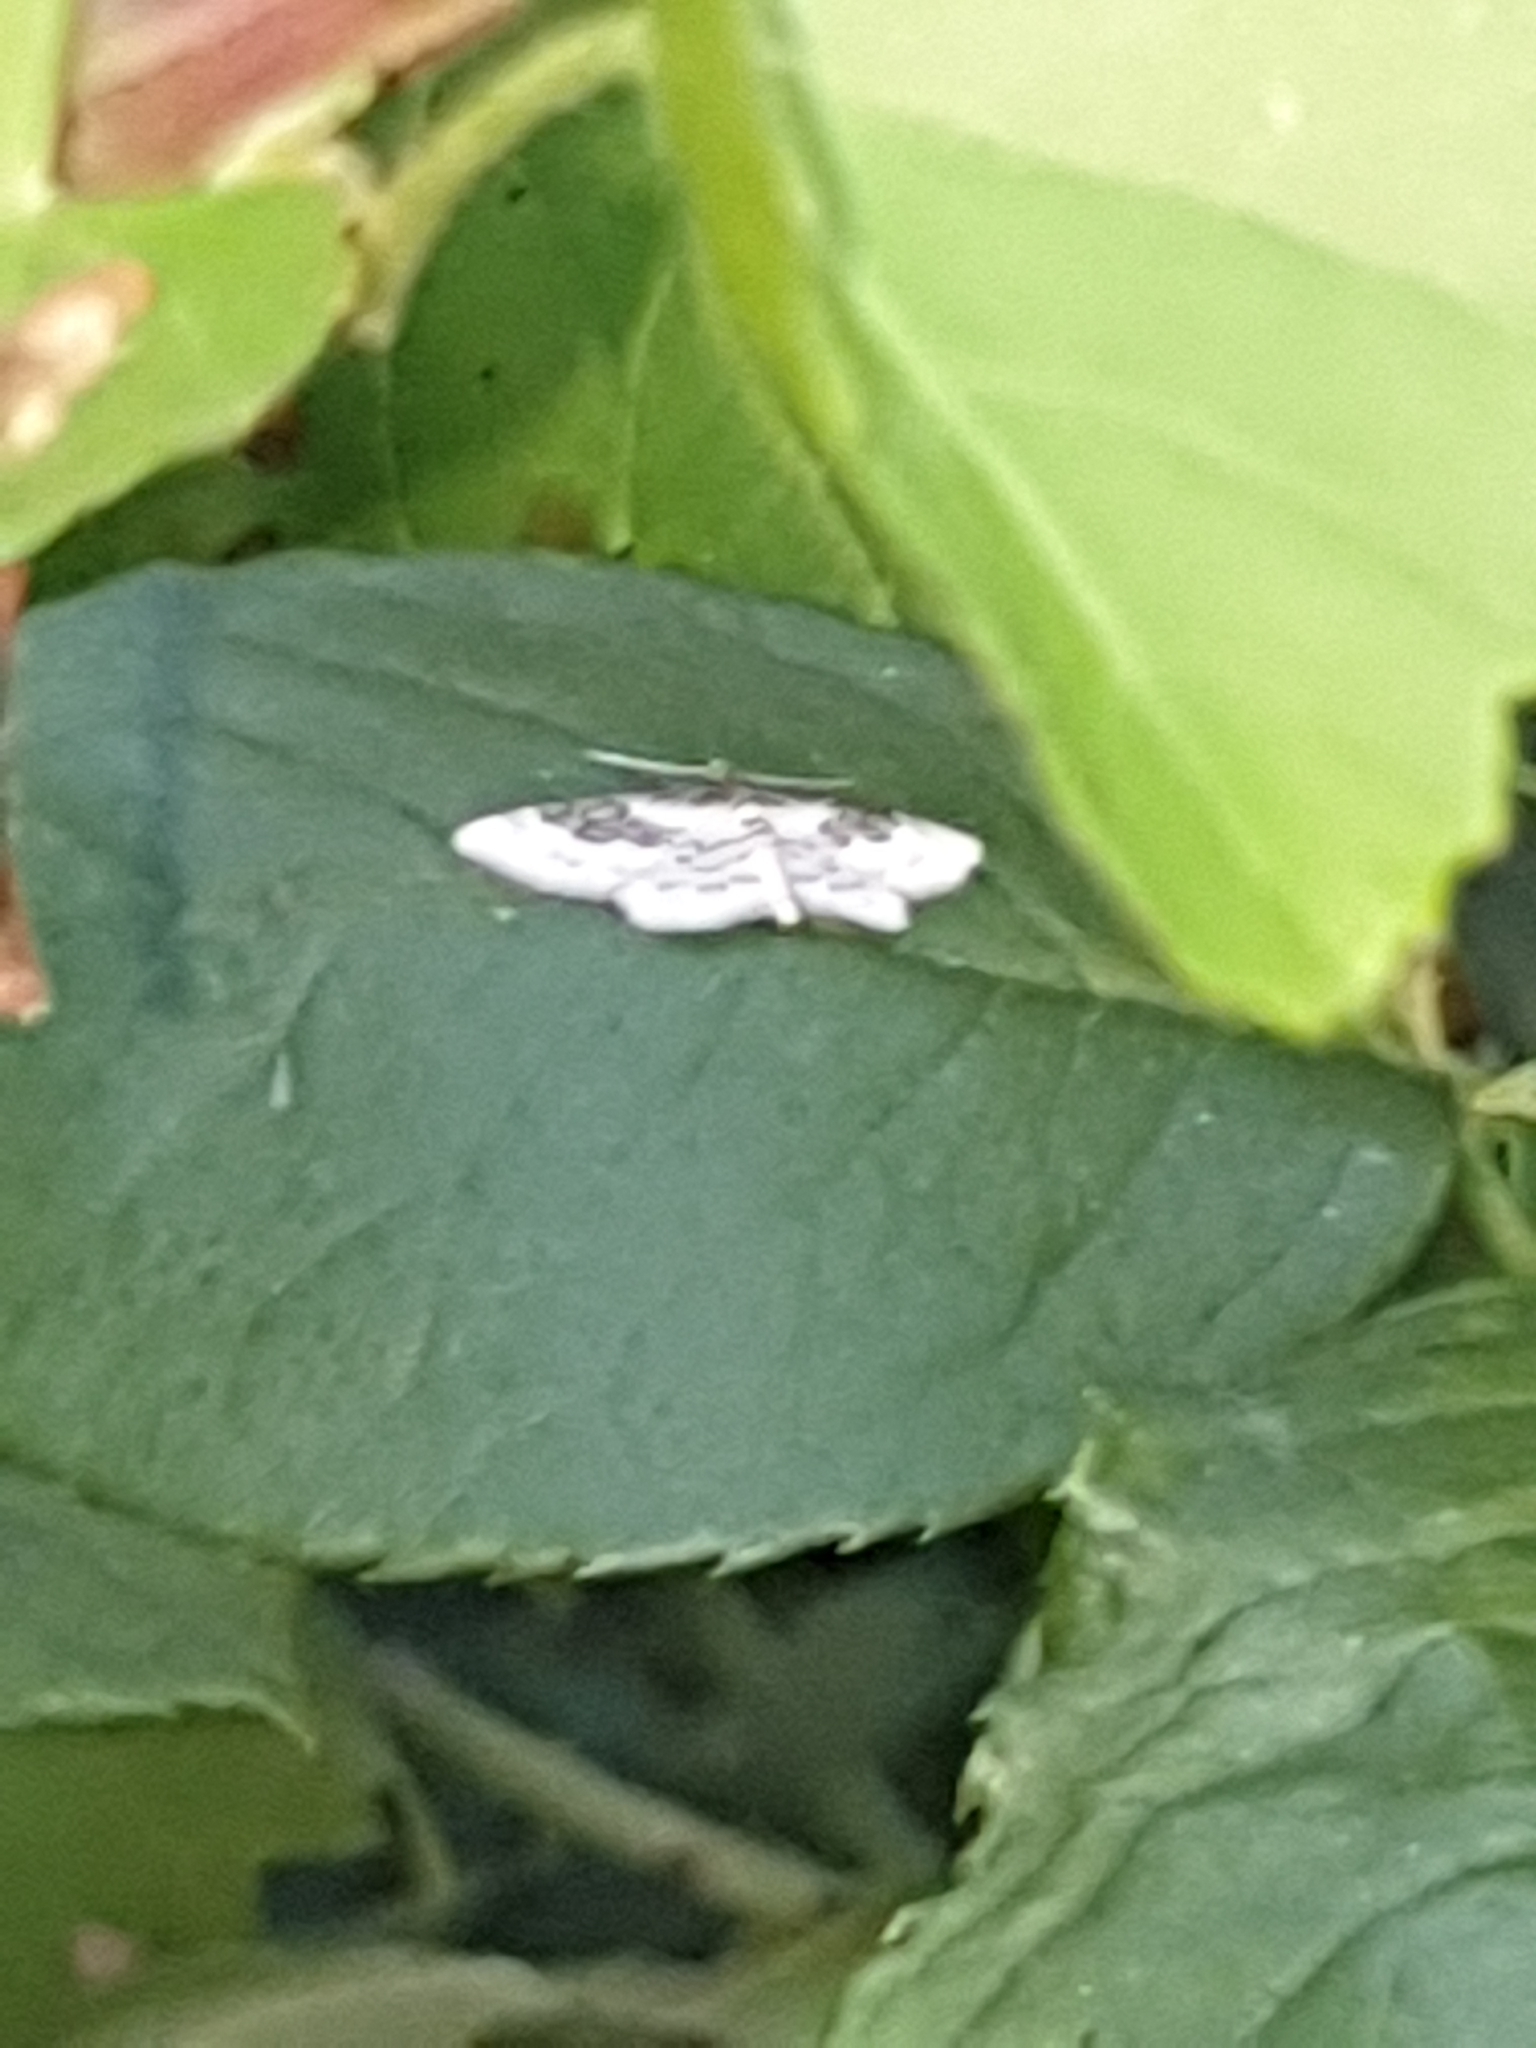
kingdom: Animalia
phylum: Arthropoda
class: Insecta
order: Lepidoptera
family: Geometridae
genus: Idaea
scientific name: Idaea rusticata
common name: Least carpet
